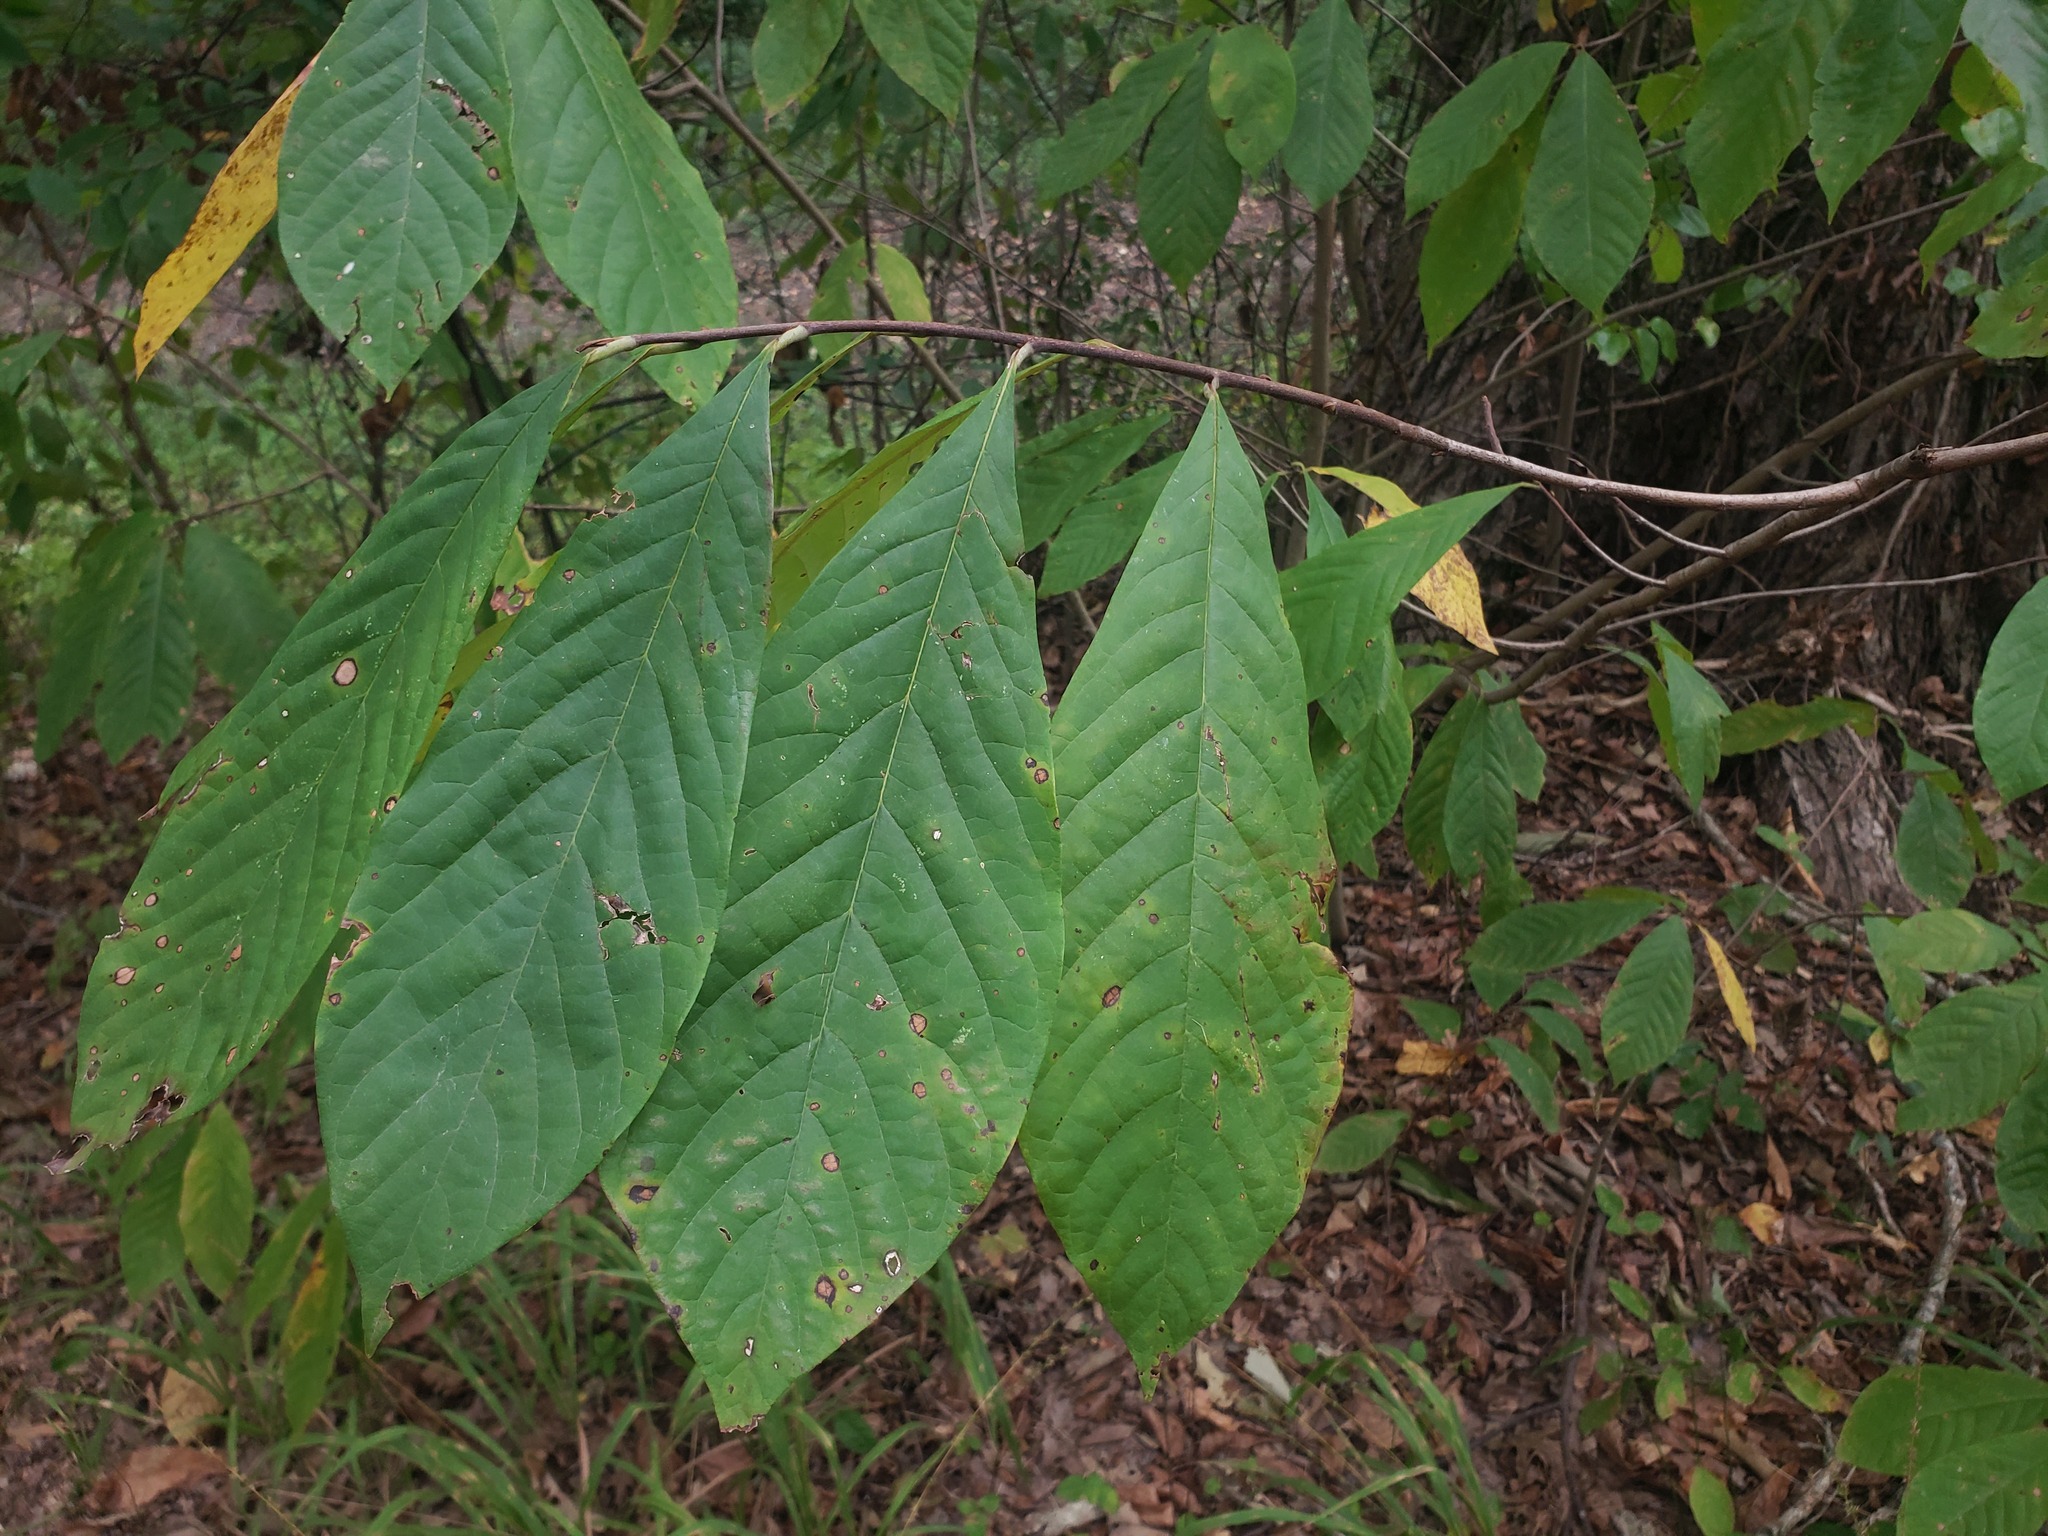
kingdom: Plantae
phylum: Tracheophyta
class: Magnoliopsida
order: Magnoliales
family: Annonaceae
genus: Asimina
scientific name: Asimina triloba
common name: Dog-banana
